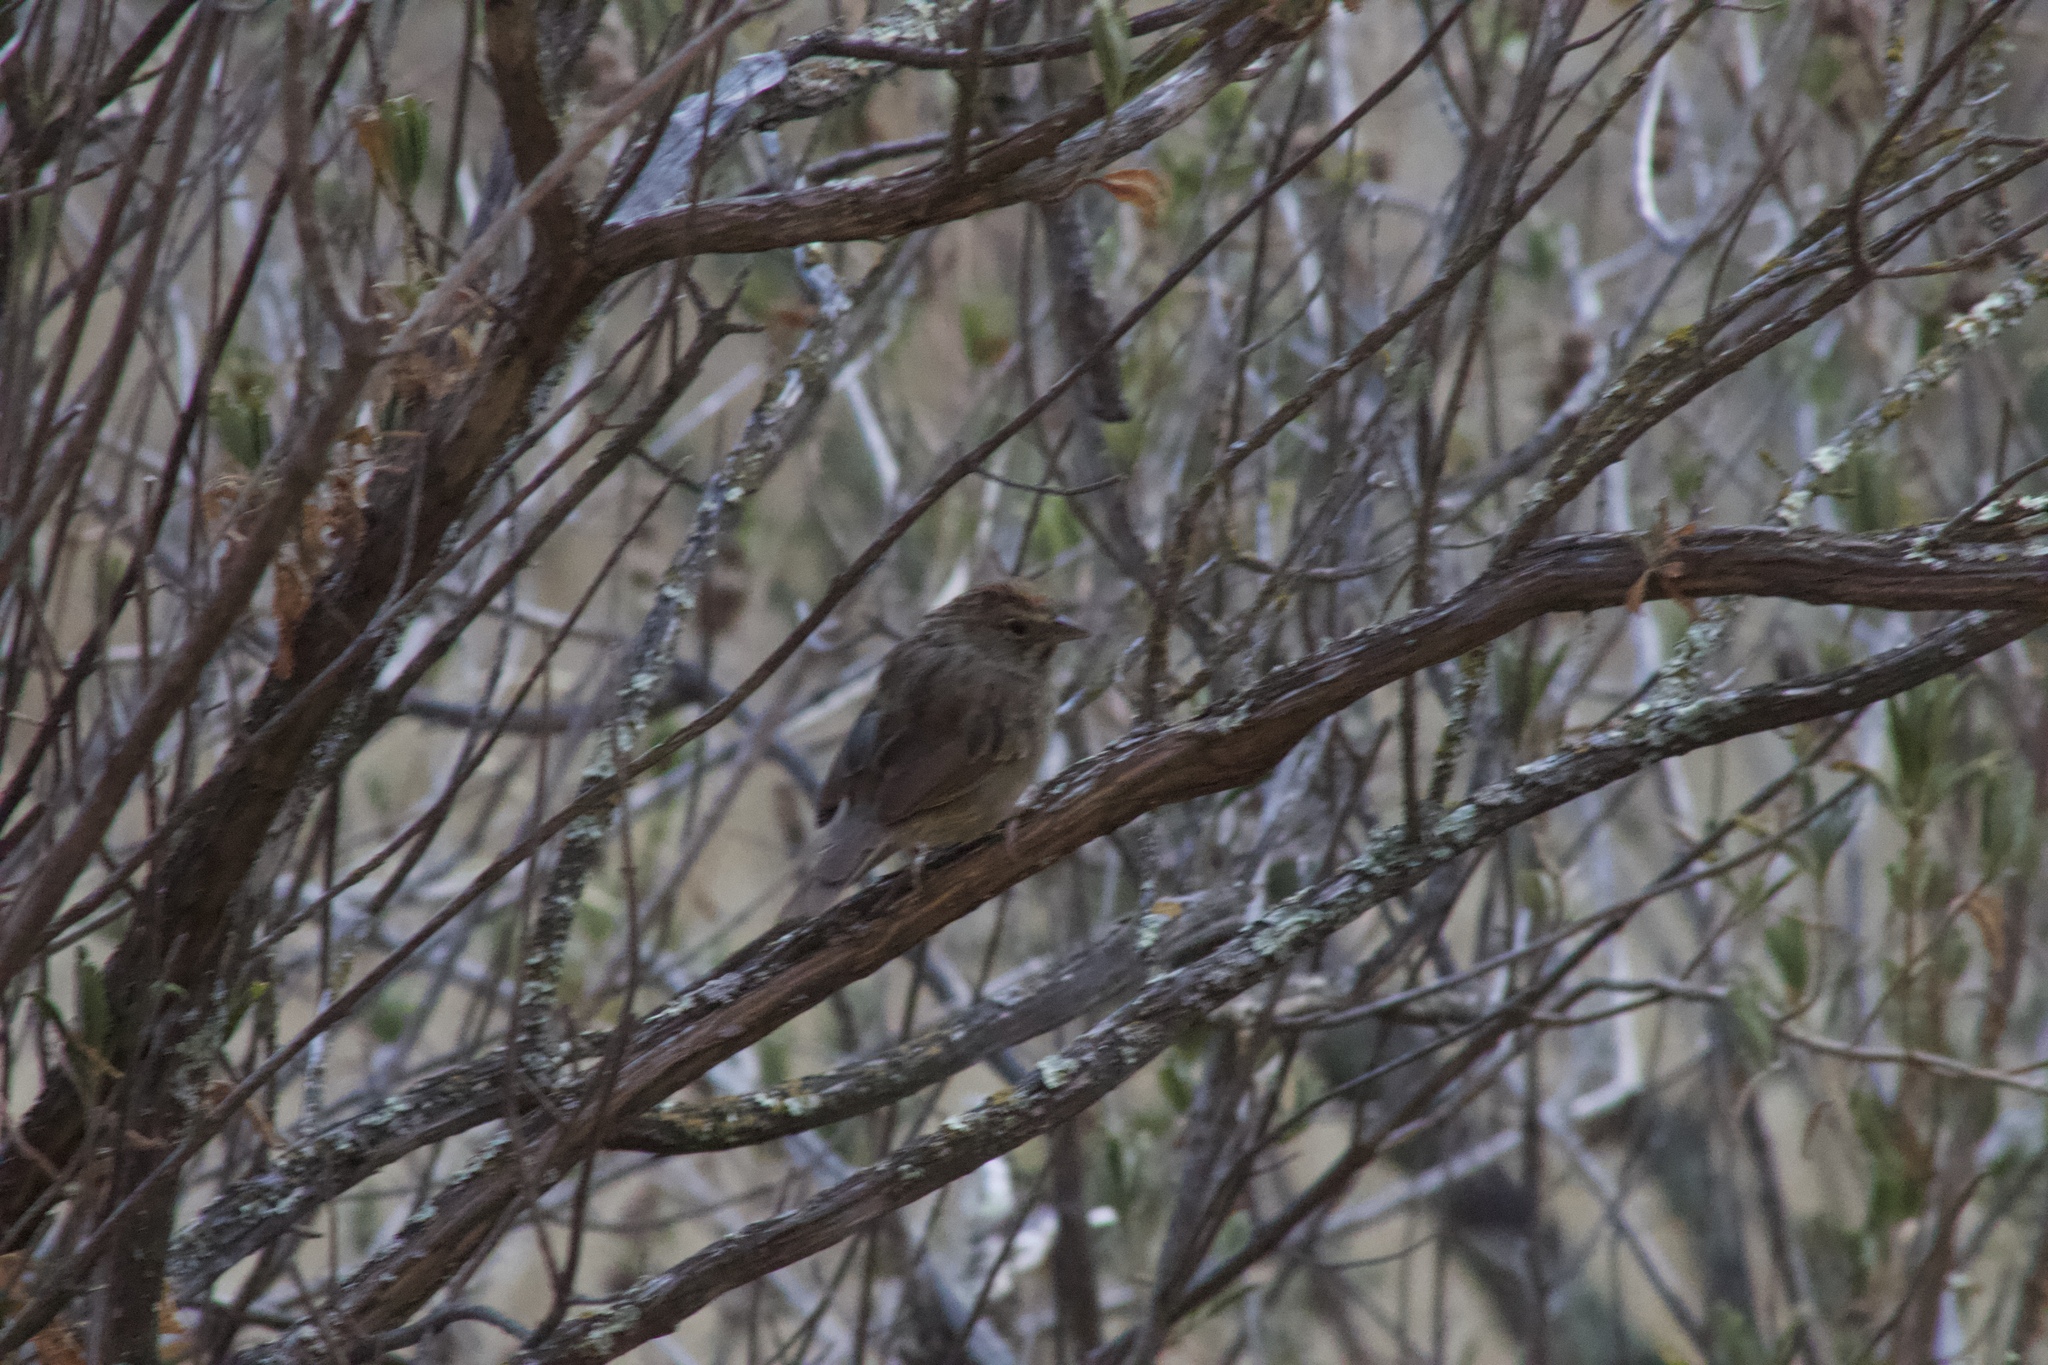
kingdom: Animalia
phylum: Chordata
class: Aves
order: Passeriformes
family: Passerellidae
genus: Aimophila
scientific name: Aimophila ruficeps
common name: Rufous-crowned sparrow
